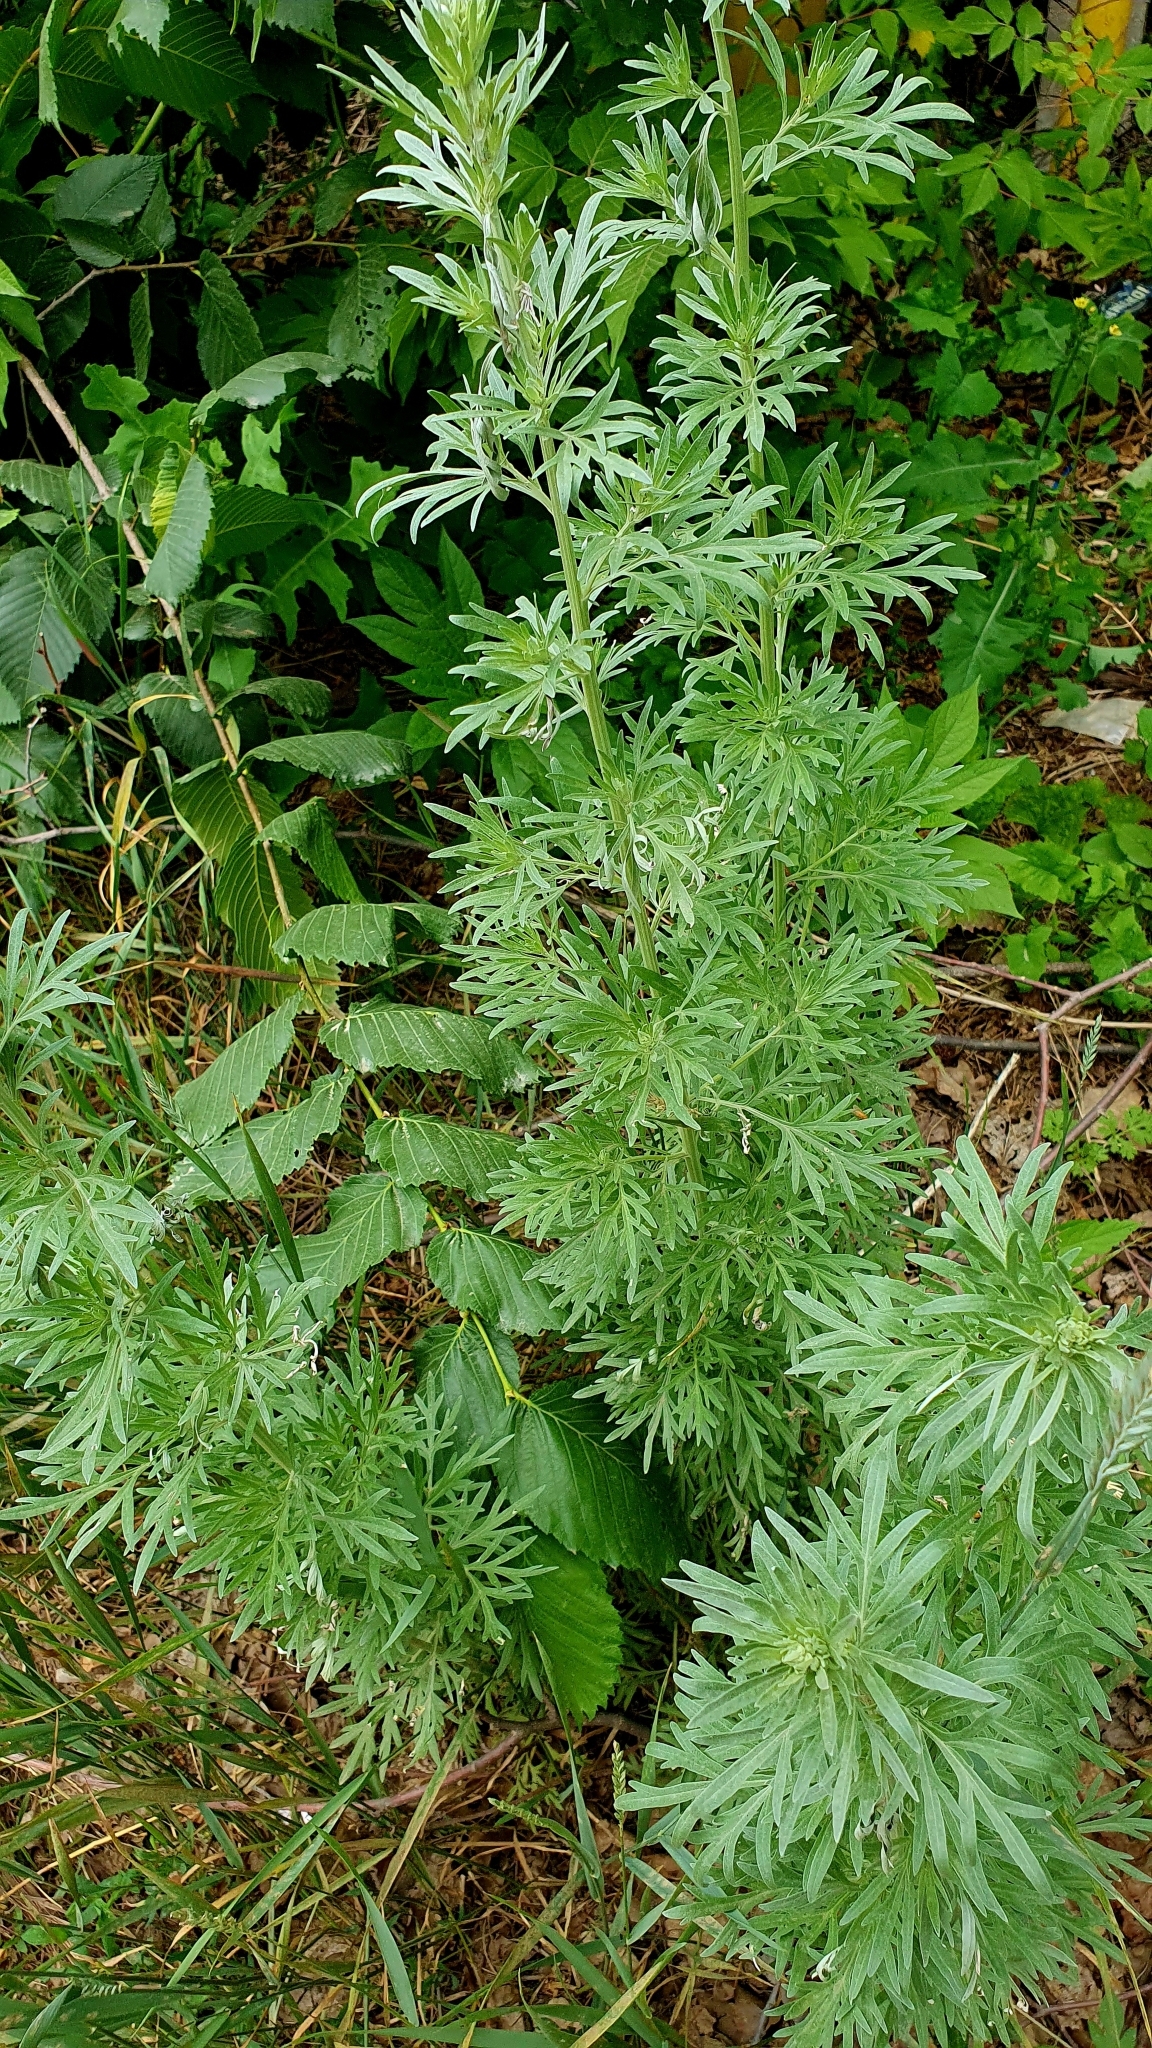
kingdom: Plantae
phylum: Tracheophyta
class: Magnoliopsida
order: Asterales
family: Asteraceae
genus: Artemisia
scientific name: Artemisia absinthium
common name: Wormwood
